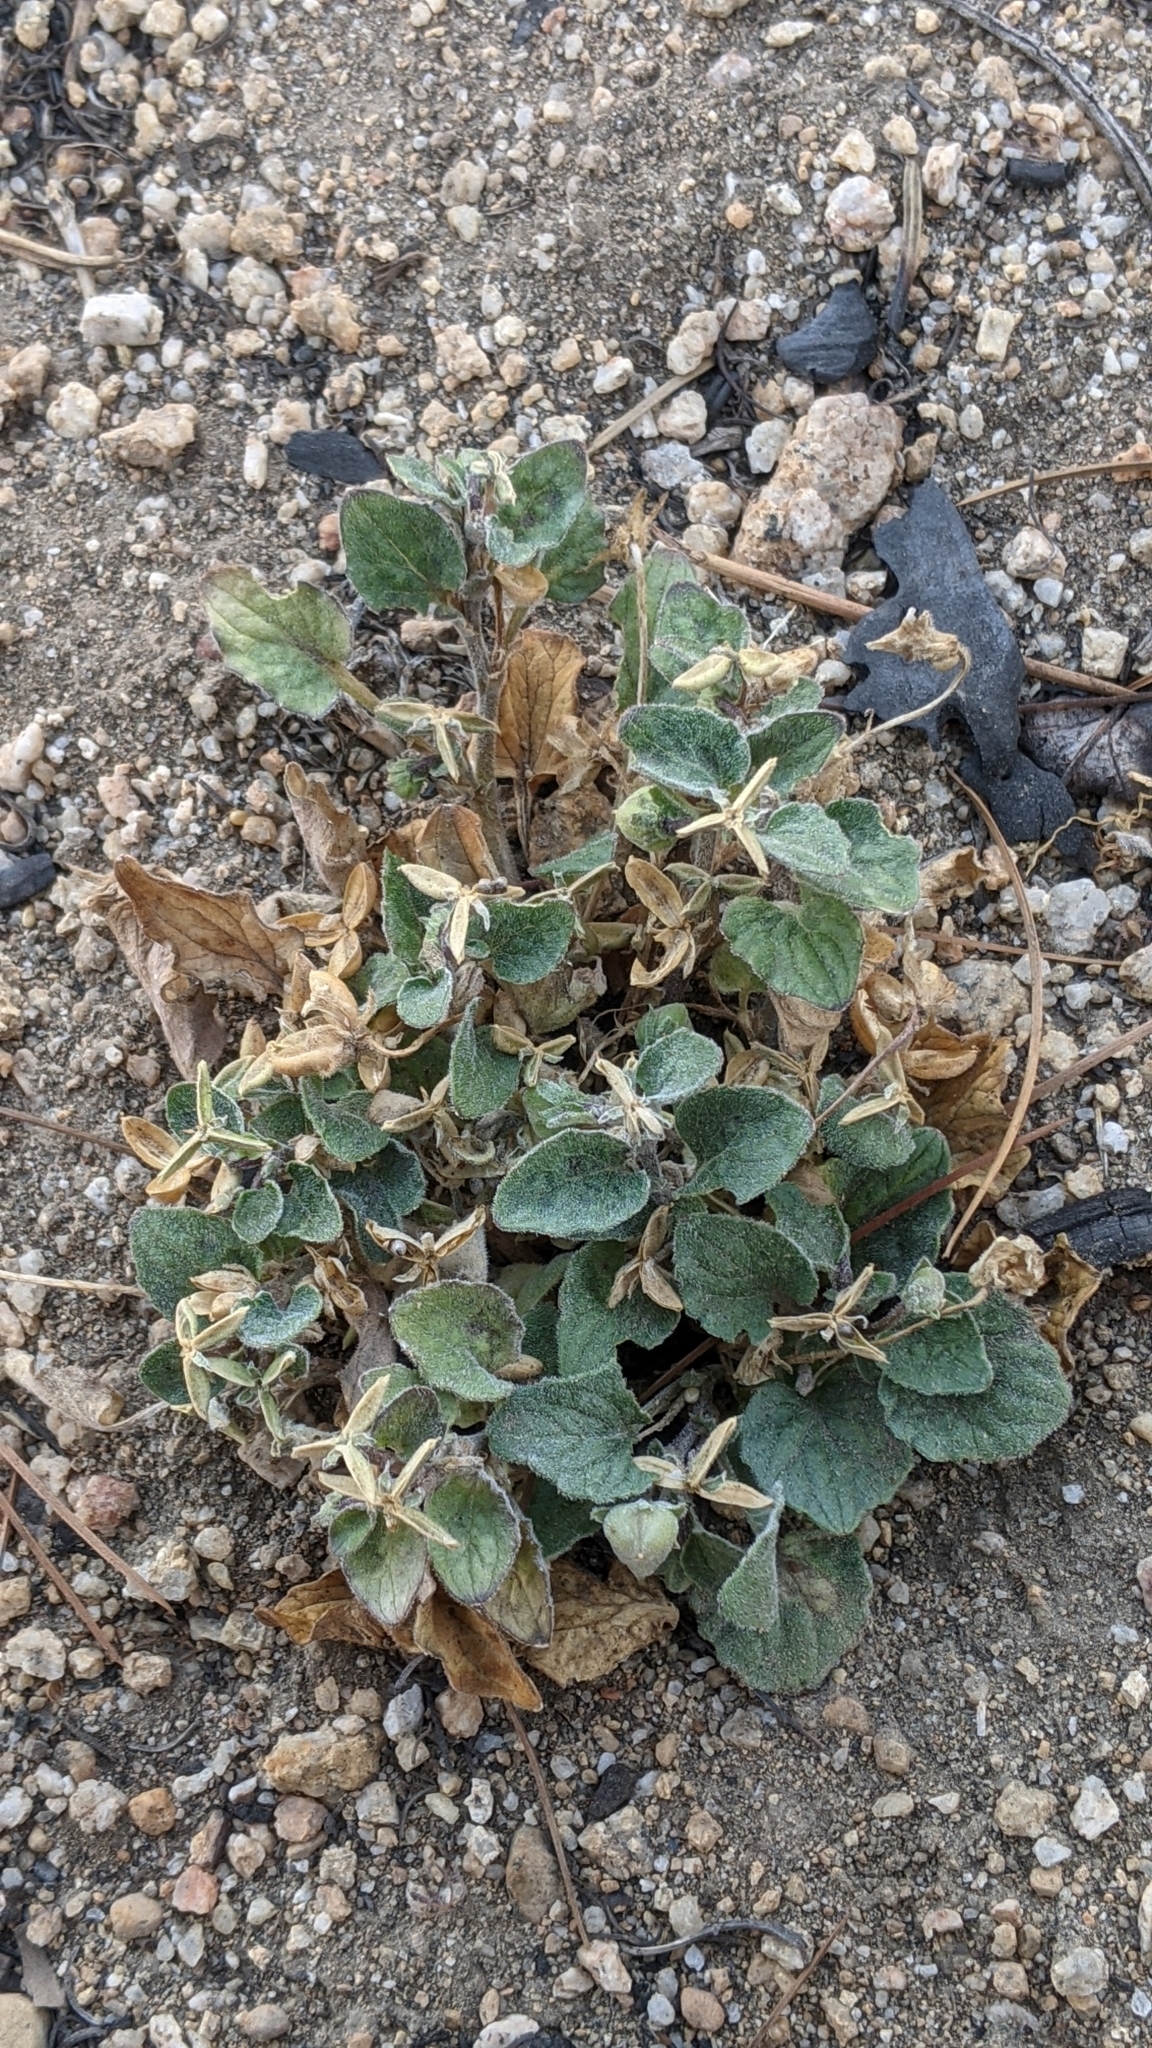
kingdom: Plantae
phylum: Tracheophyta
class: Magnoliopsida
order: Malpighiales
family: Violaceae
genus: Viola
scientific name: Viola purpurea
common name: Pine violet
